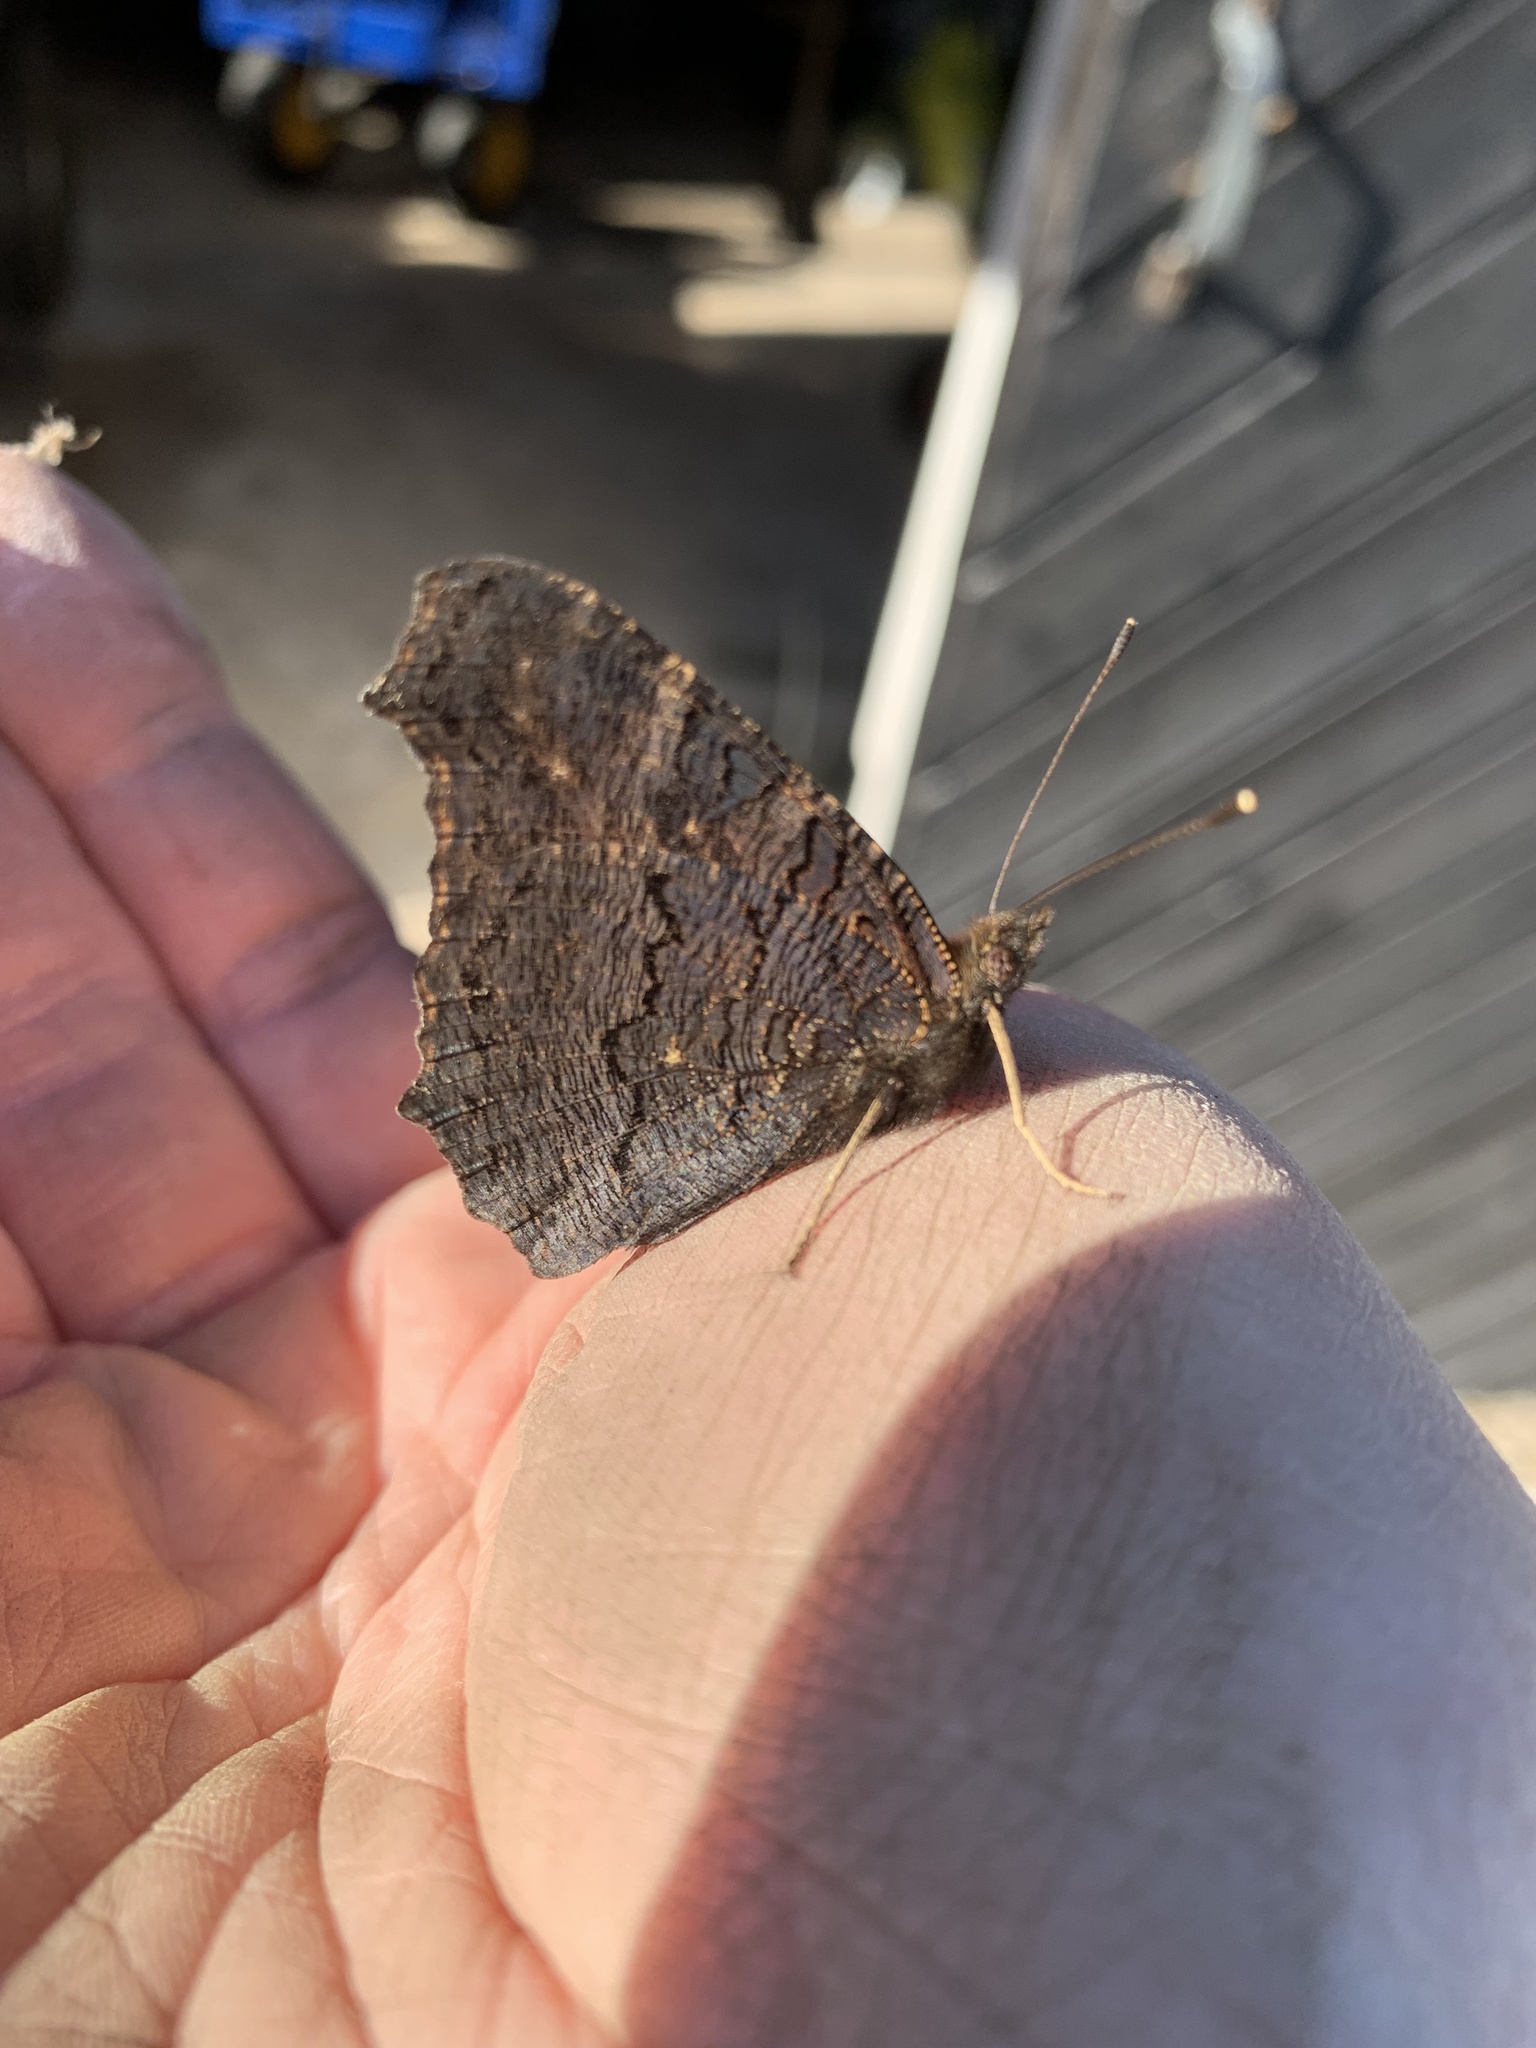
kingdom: Animalia
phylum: Arthropoda
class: Insecta
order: Lepidoptera
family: Nymphalidae
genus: Aglais
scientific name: Aglais io
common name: Peacock
